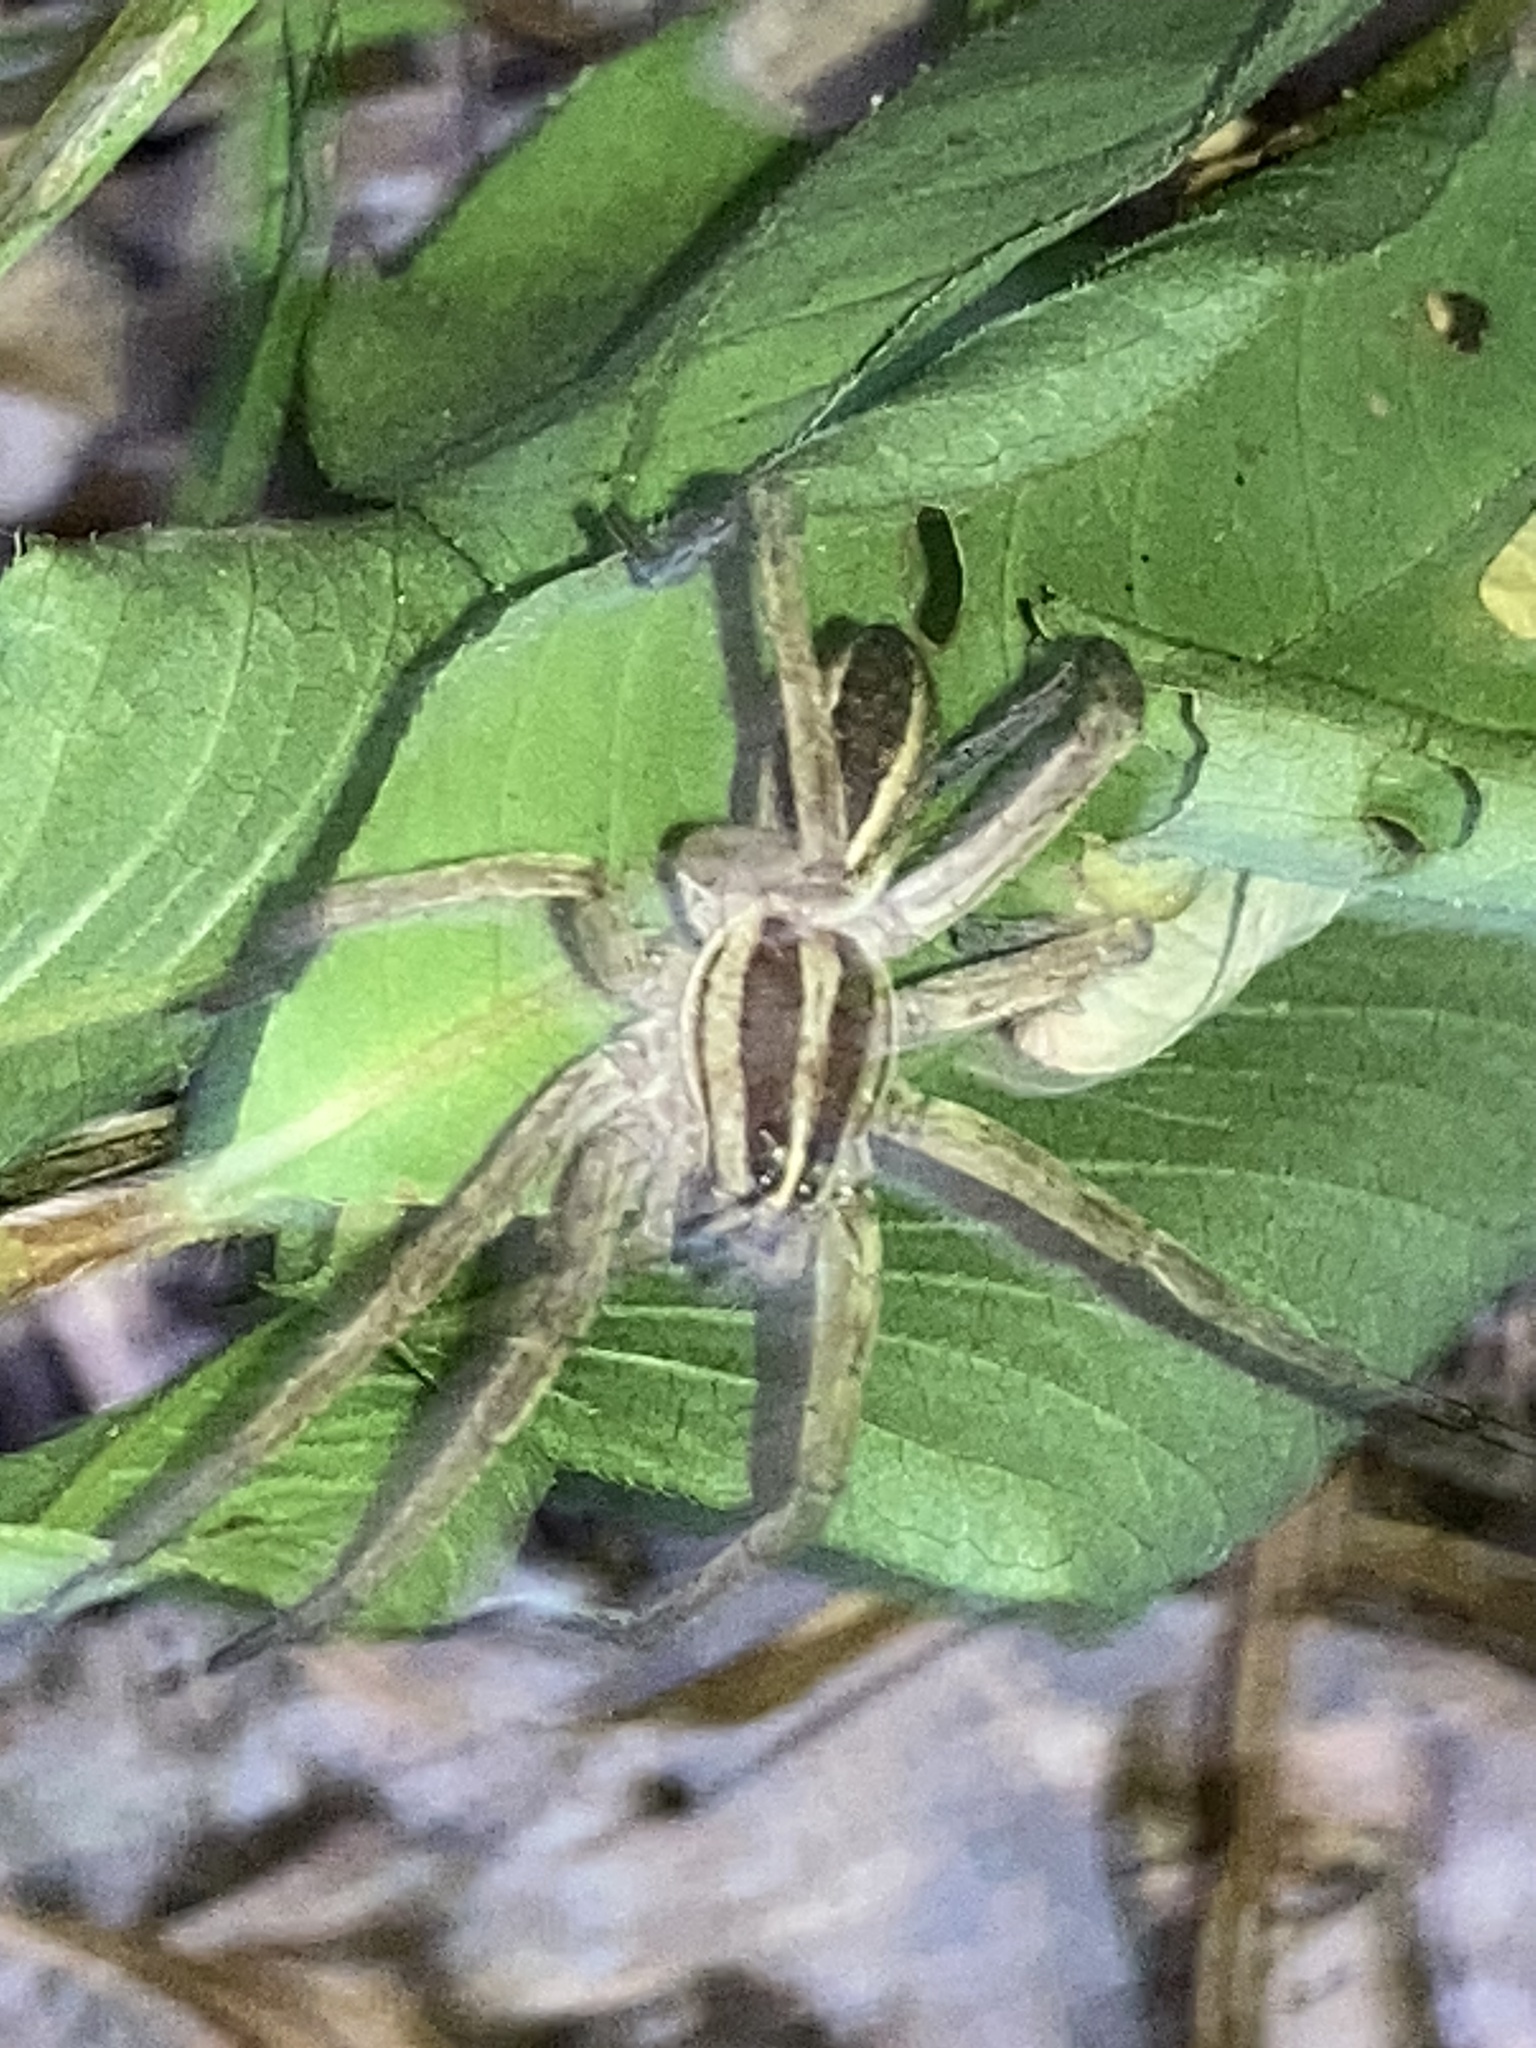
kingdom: Animalia
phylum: Arthropoda
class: Arachnida
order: Araneae
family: Lycosidae
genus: Rabidosa
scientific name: Rabidosa rabida
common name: Rabid wolf spider
